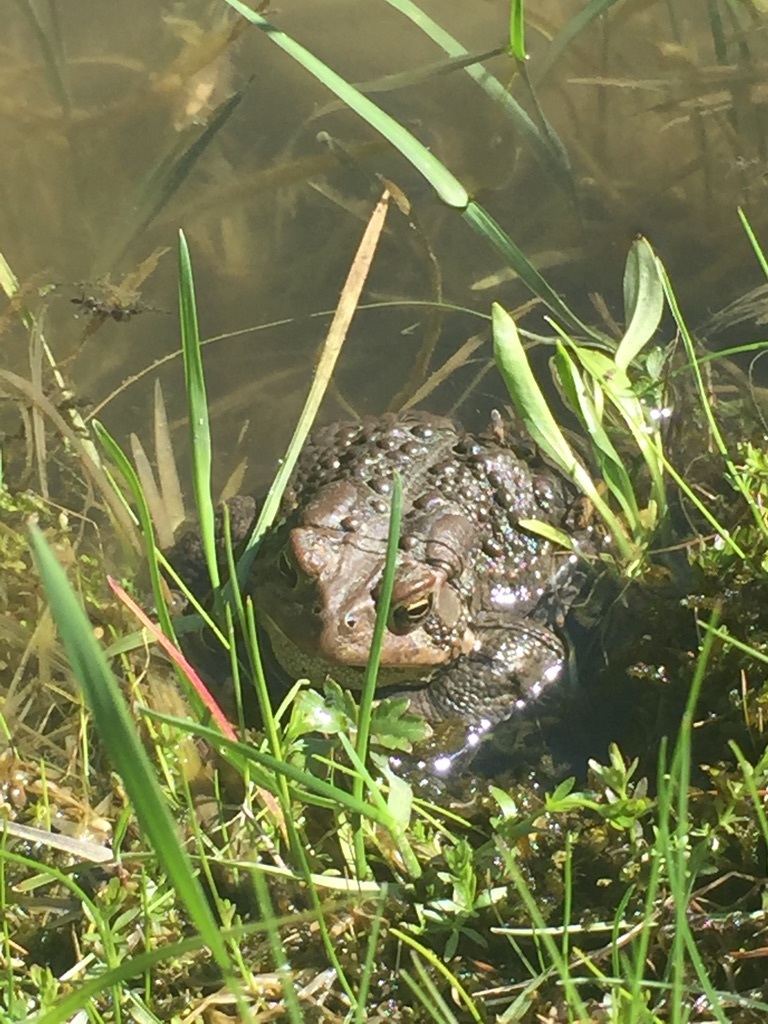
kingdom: Animalia
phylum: Chordata
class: Amphibia
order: Anura
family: Bufonidae
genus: Anaxyrus
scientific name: Anaxyrus americanus
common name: American toad
